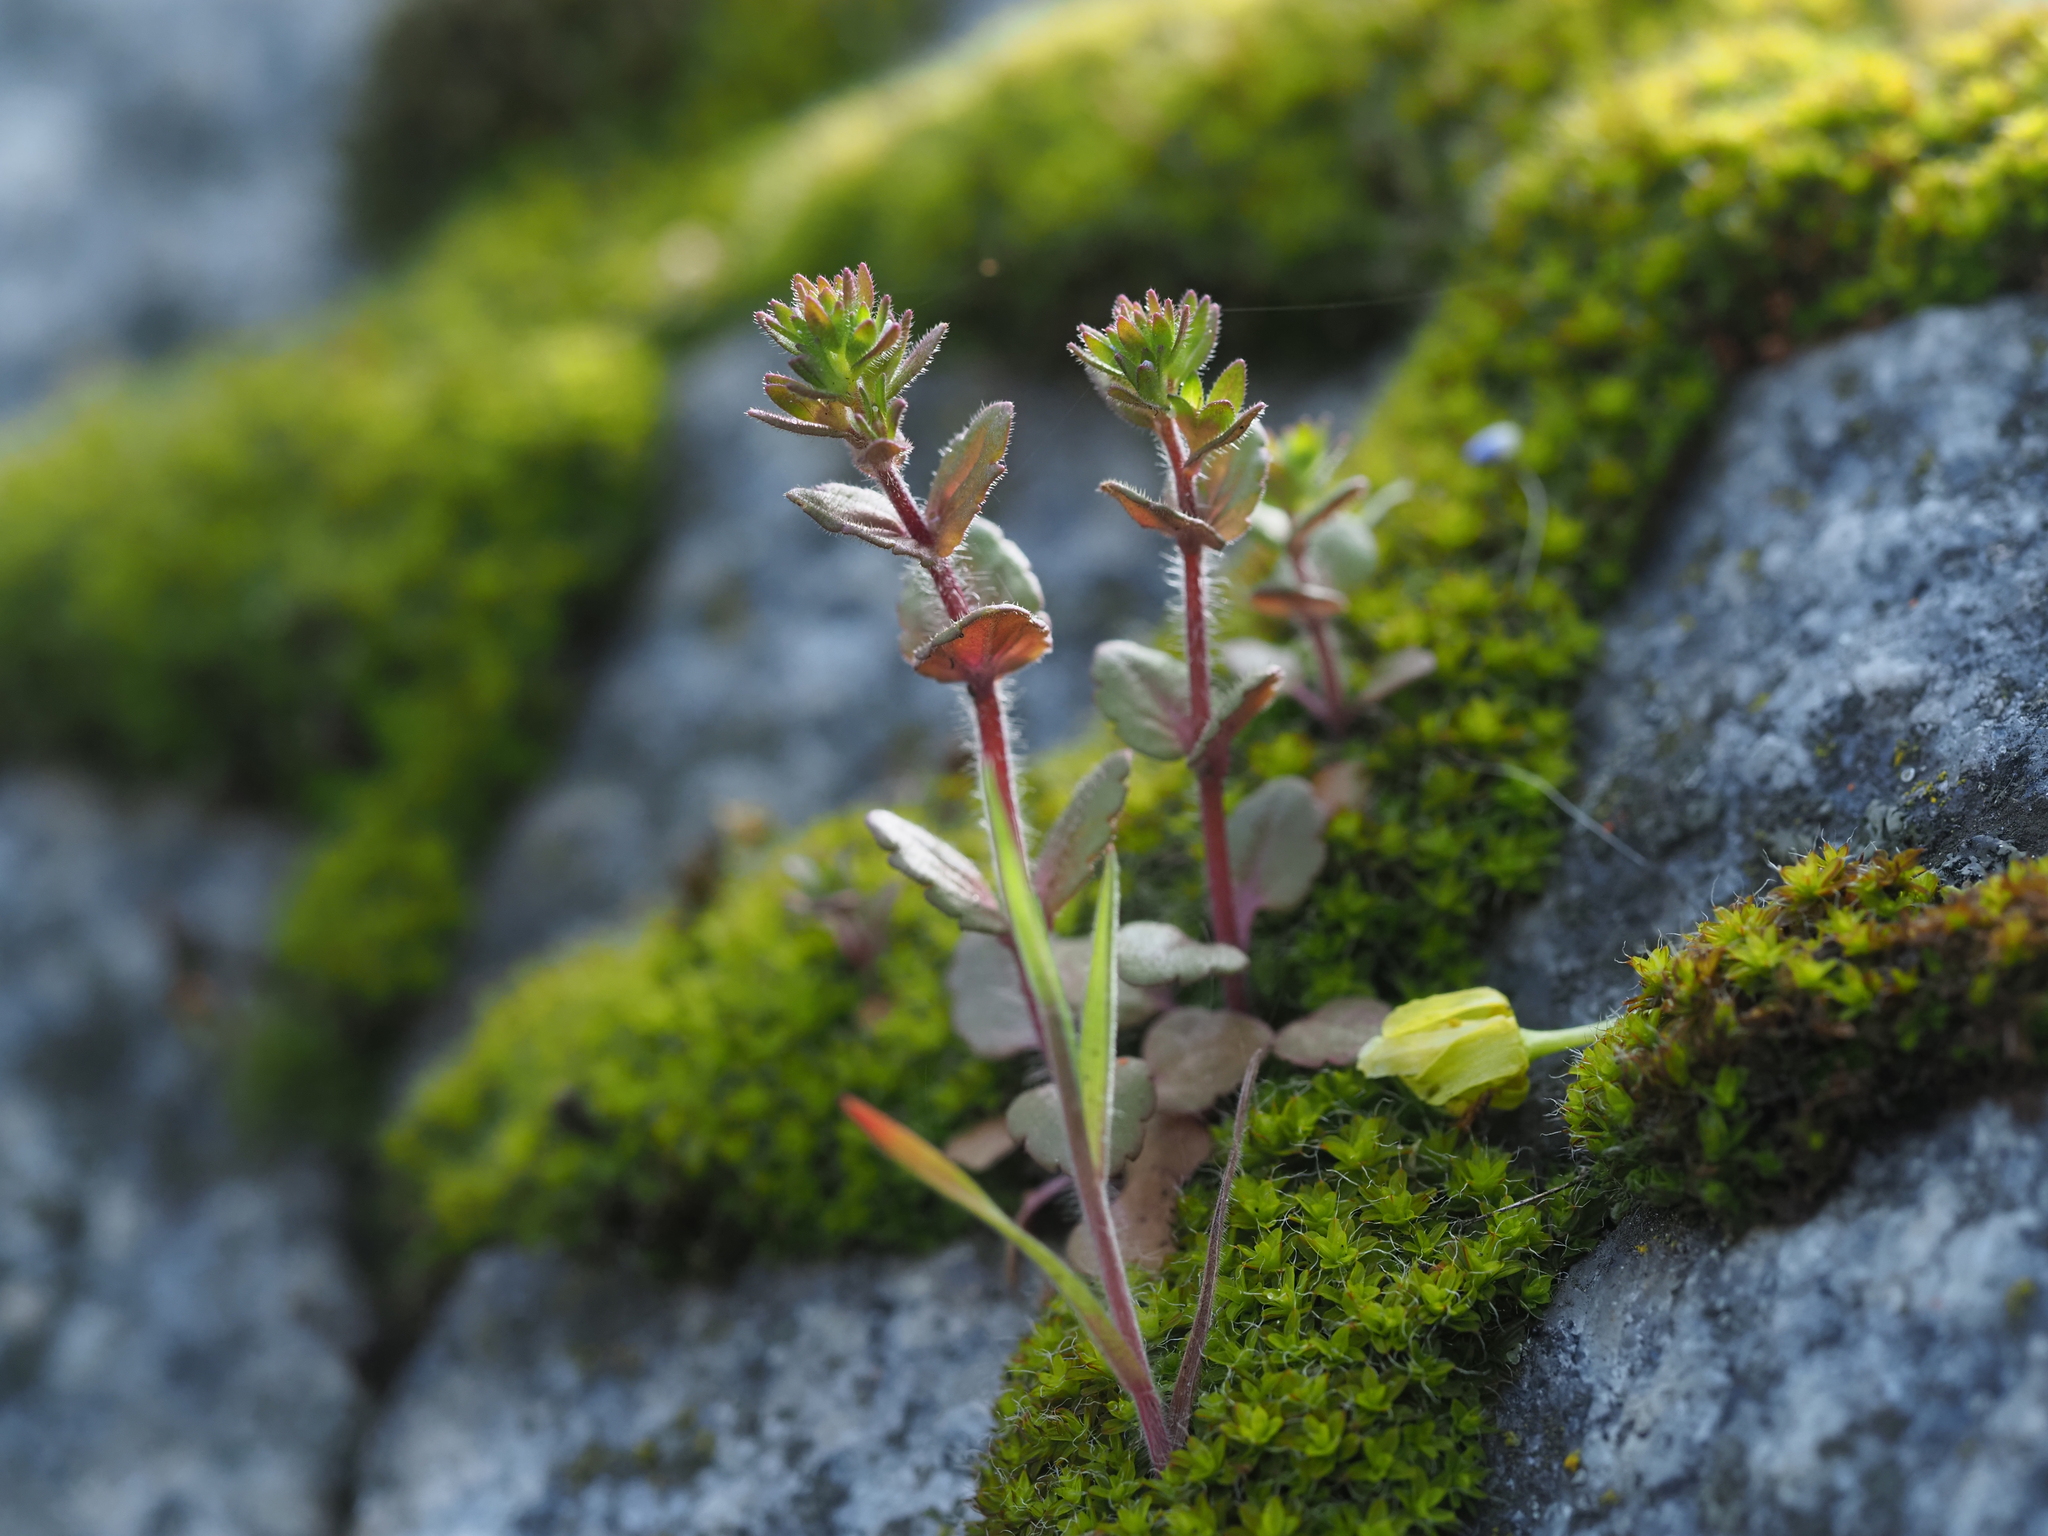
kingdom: Plantae
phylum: Tracheophyta
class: Magnoliopsida
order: Lamiales
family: Plantaginaceae
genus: Veronica
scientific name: Veronica arvensis
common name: Corn speedwell
